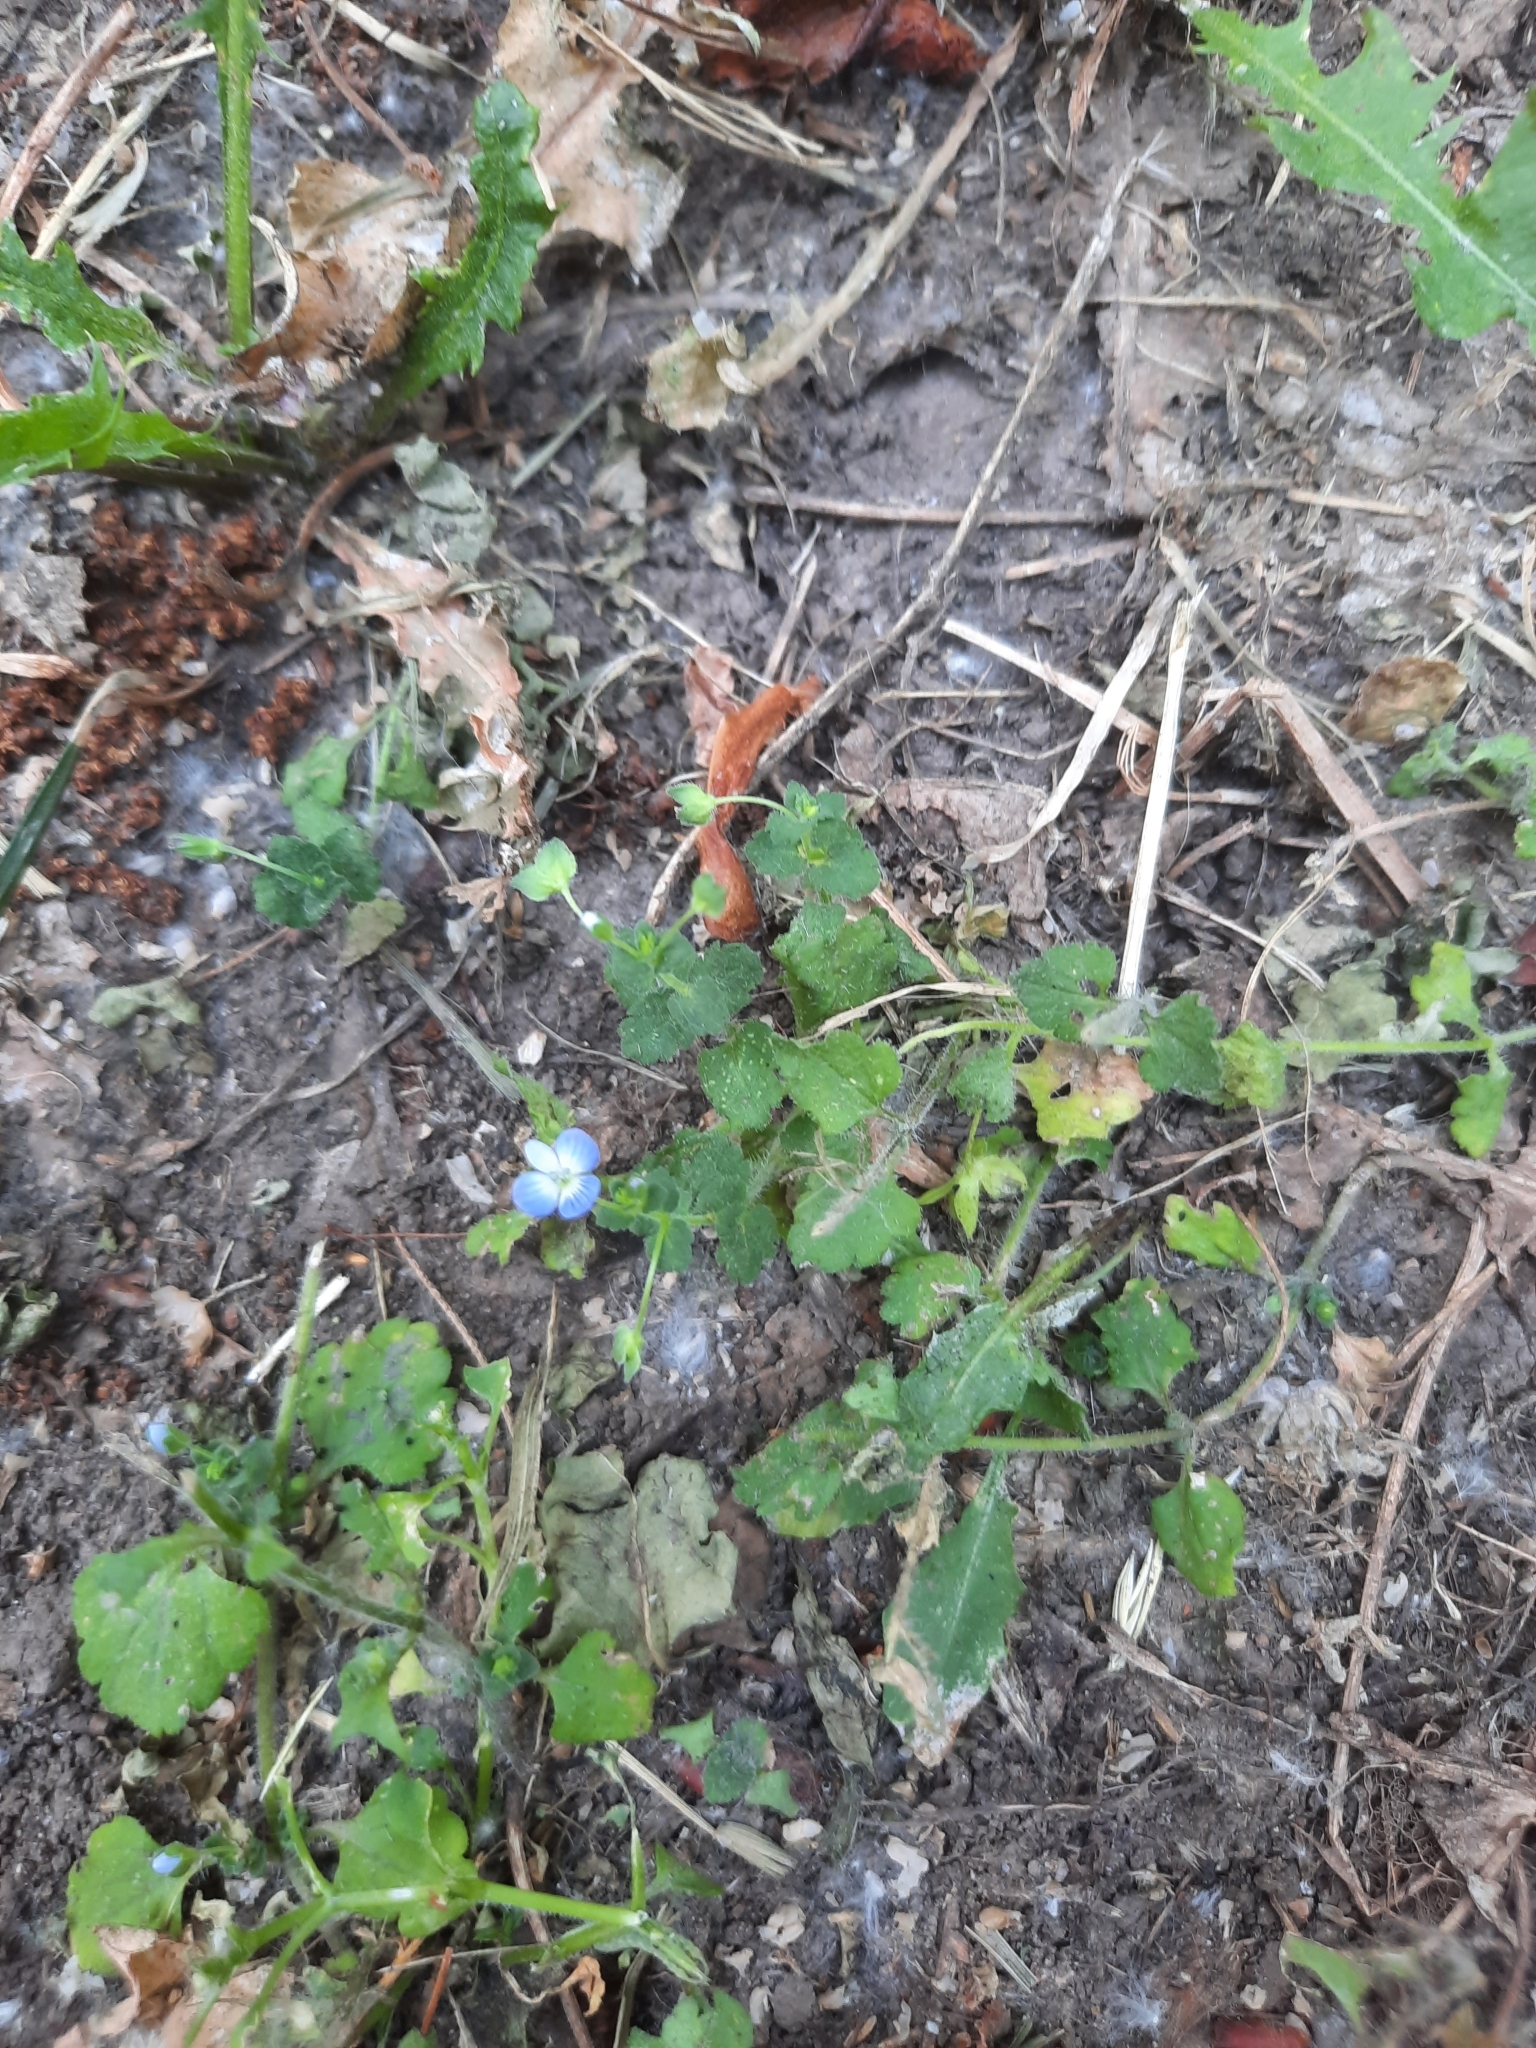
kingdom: Plantae
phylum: Tracheophyta
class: Magnoliopsida
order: Lamiales
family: Plantaginaceae
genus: Veronica
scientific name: Veronica persica
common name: Common field-speedwell
